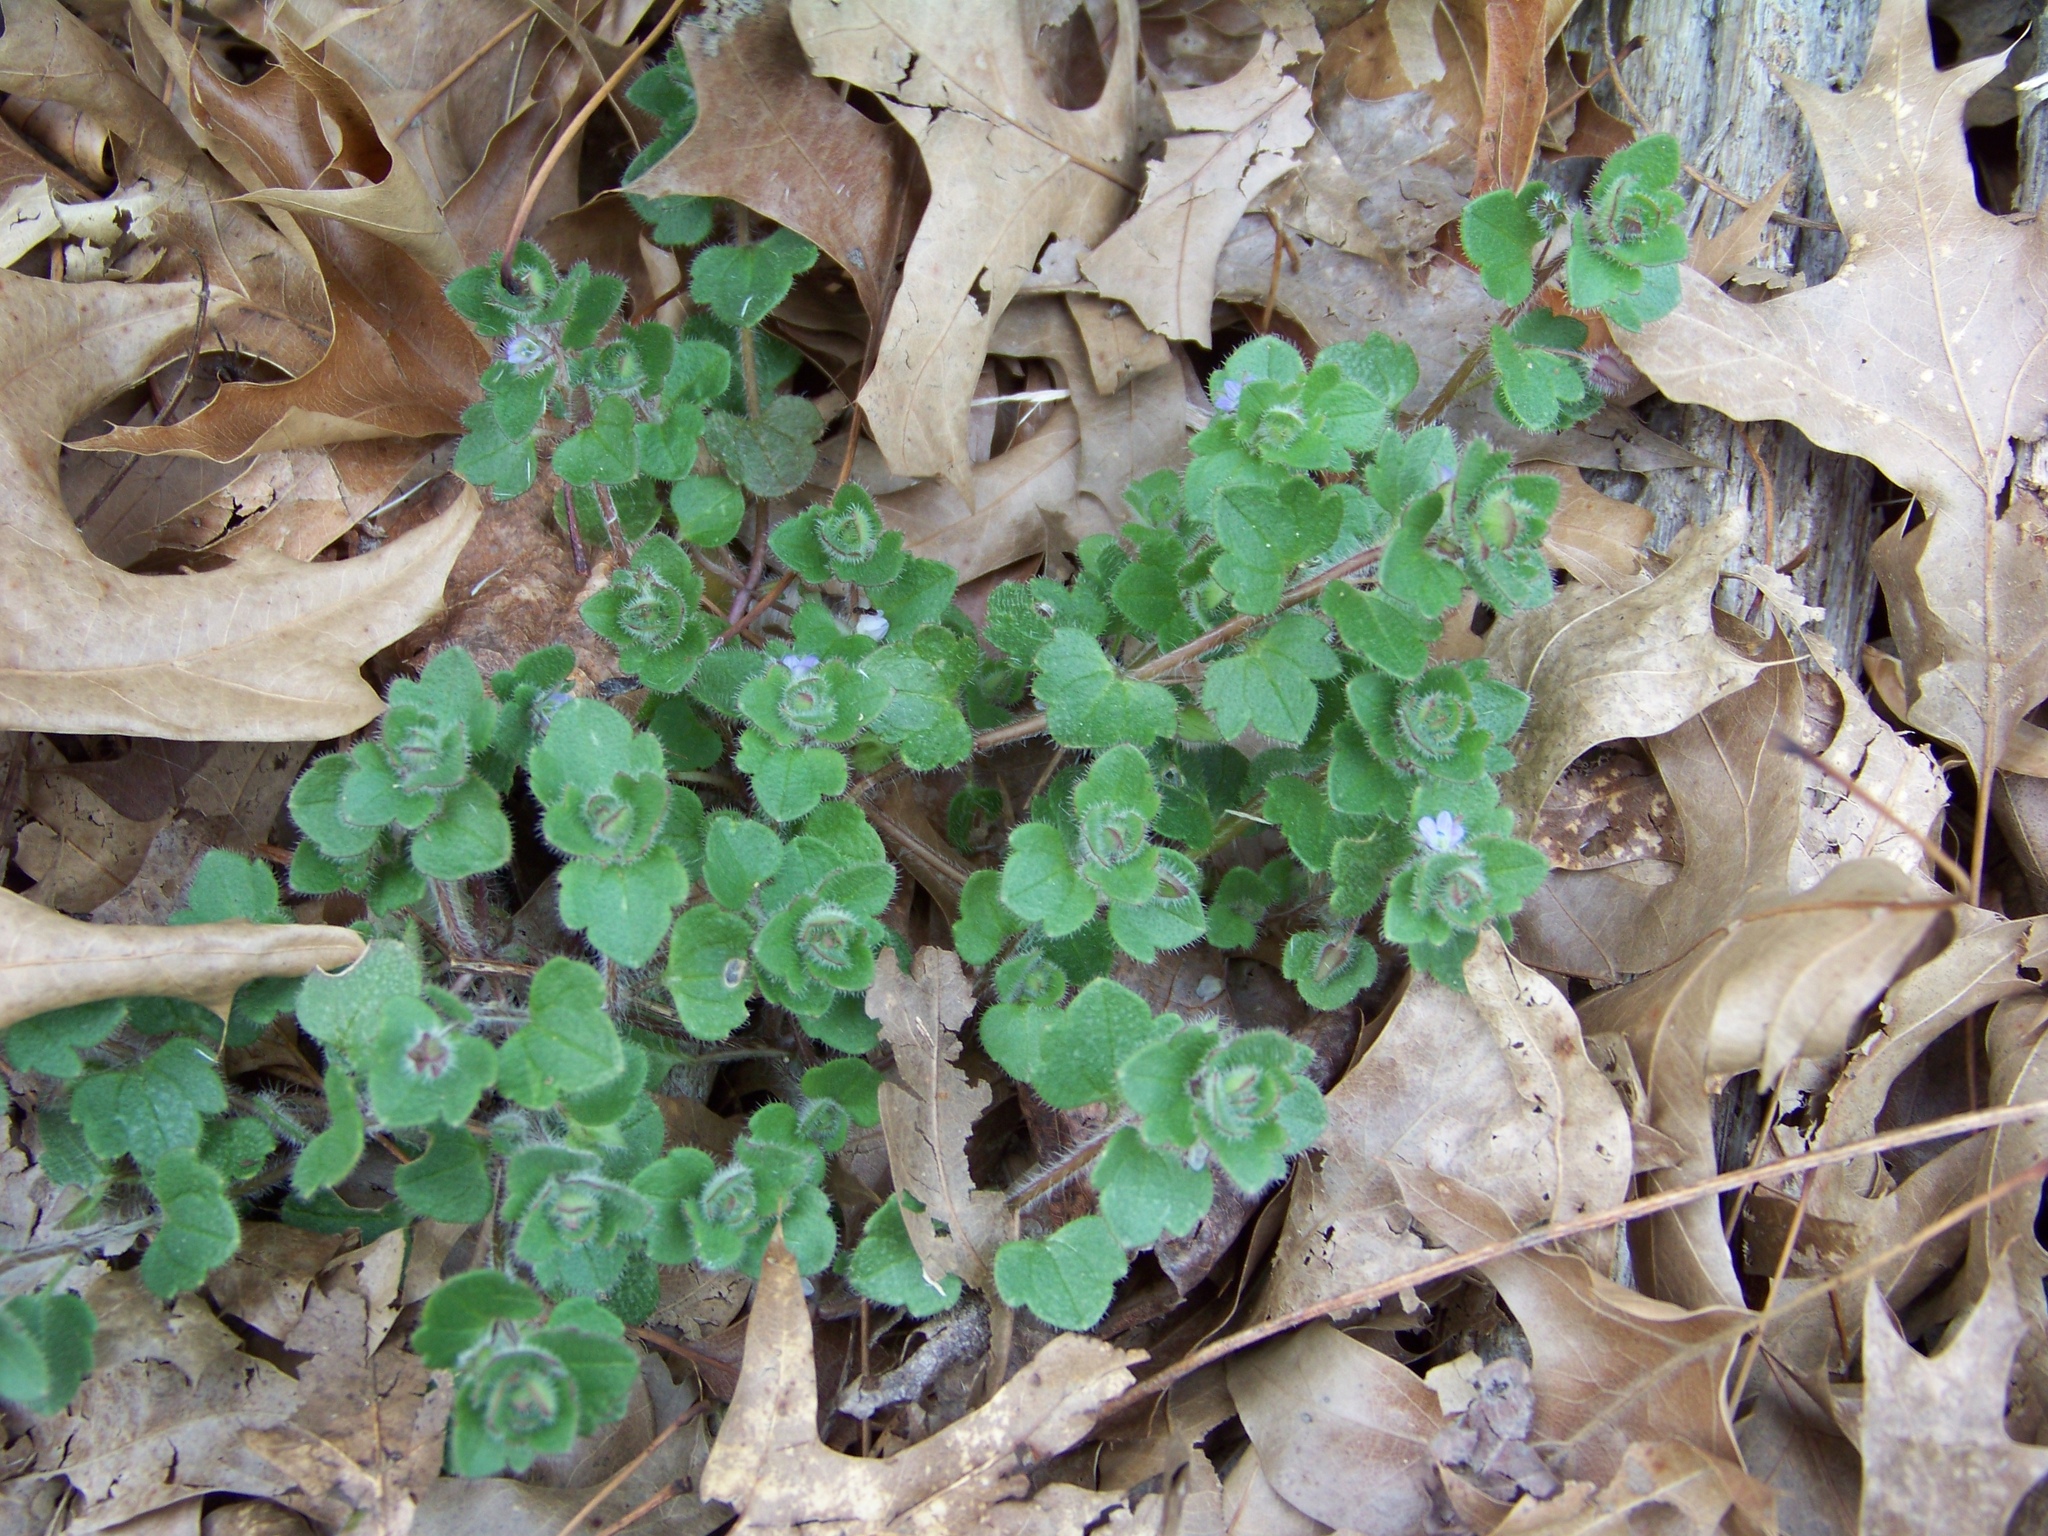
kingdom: Plantae
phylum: Tracheophyta
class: Magnoliopsida
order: Lamiales
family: Plantaginaceae
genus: Veronica
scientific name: Veronica hederifolia
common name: Ivy-leaved speedwell
